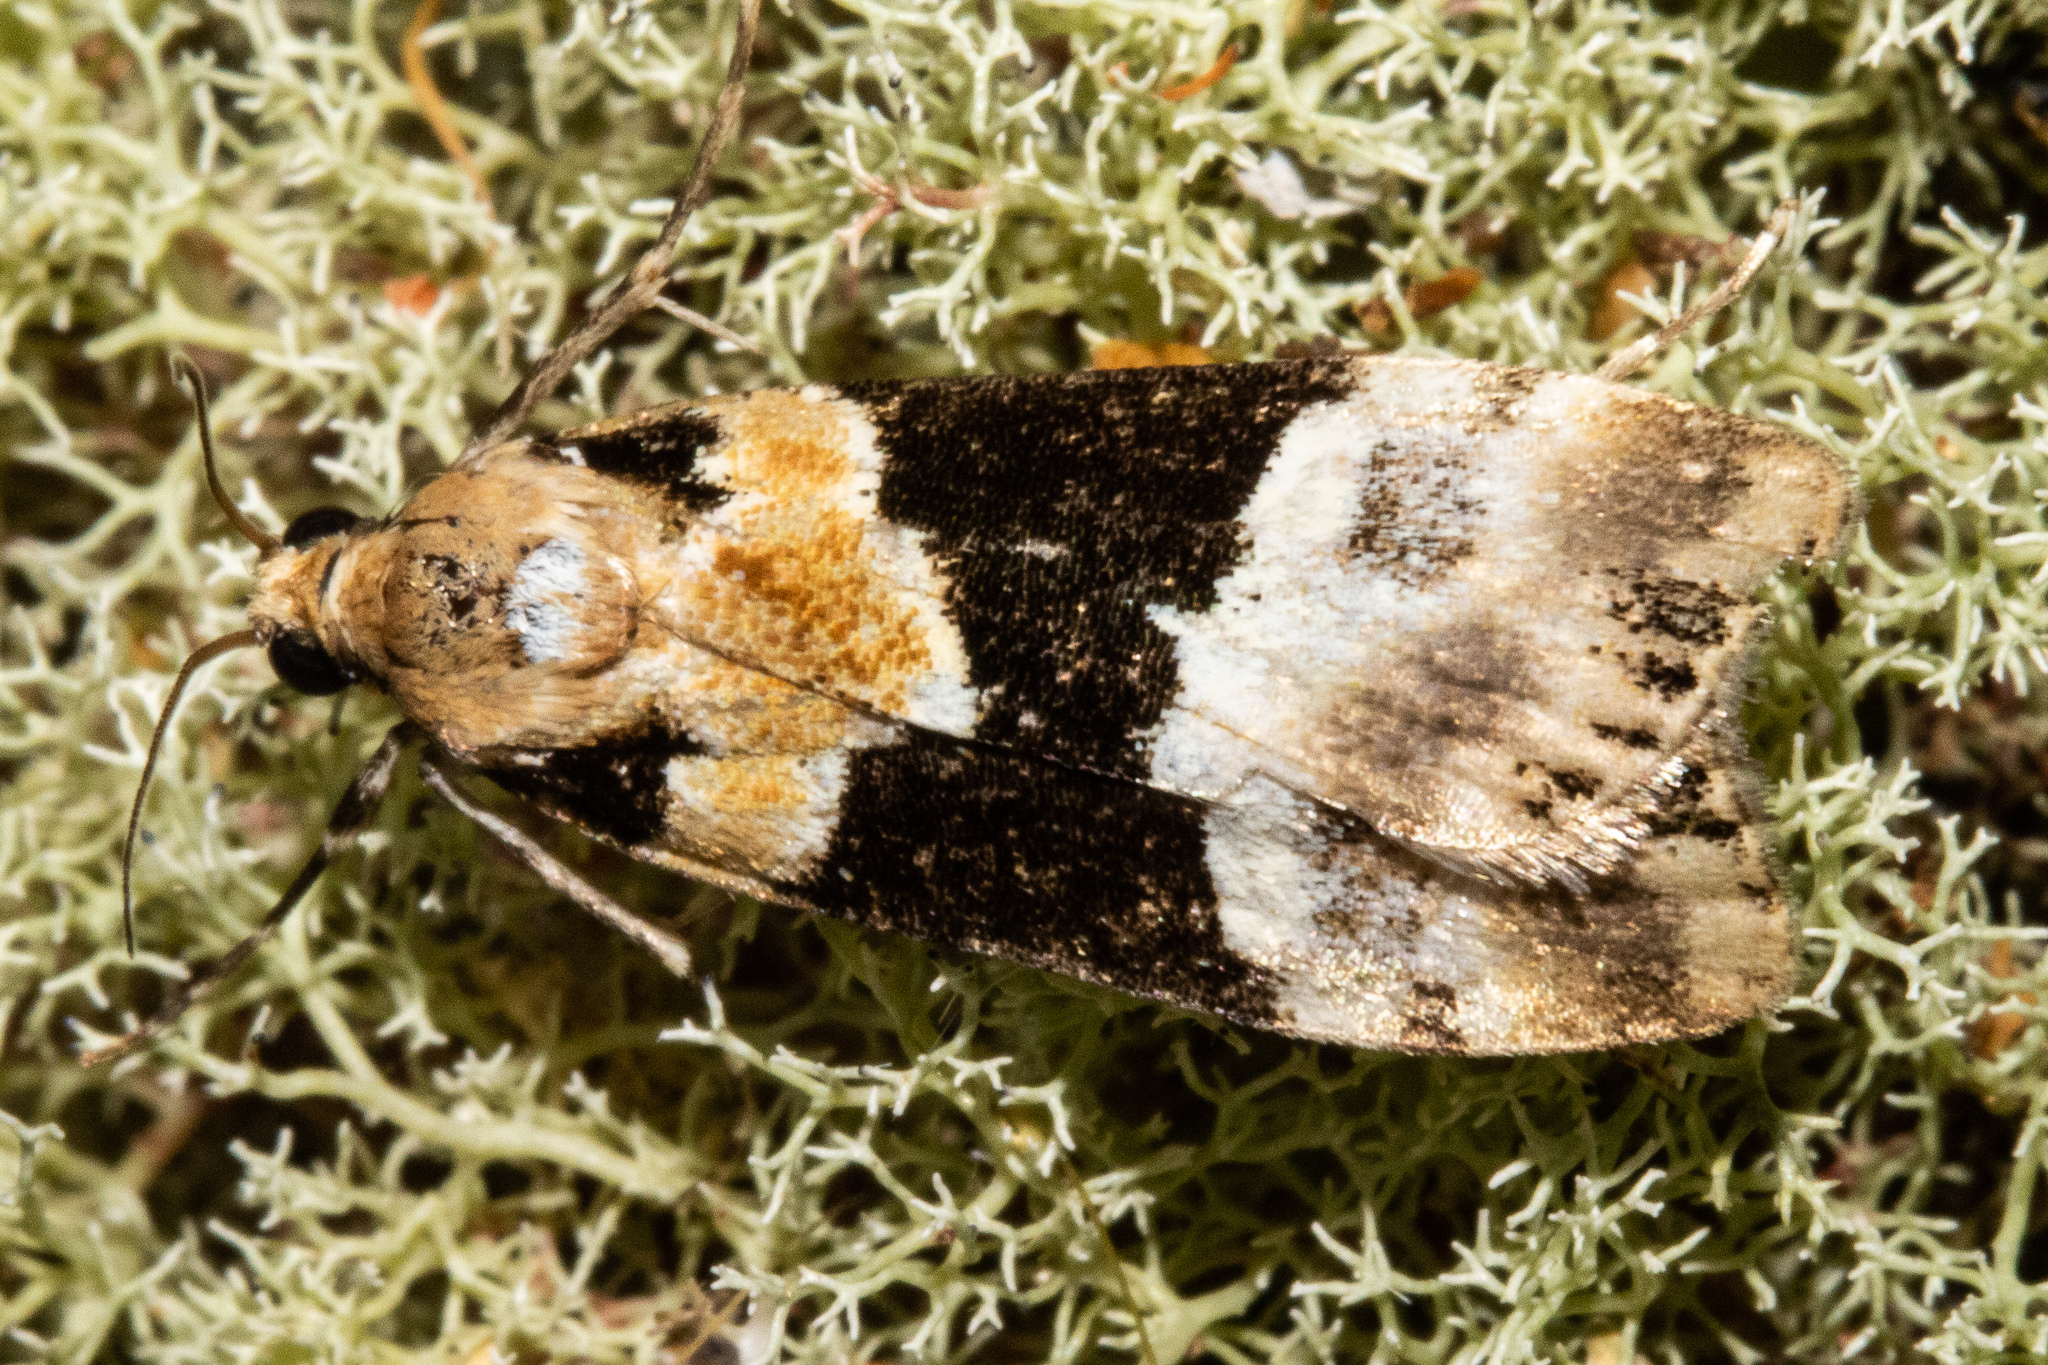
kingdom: Animalia
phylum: Arthropoda
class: Insecta
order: Lepidoptera
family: Crambidae
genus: Eudonia
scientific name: Eudonia aspidota
